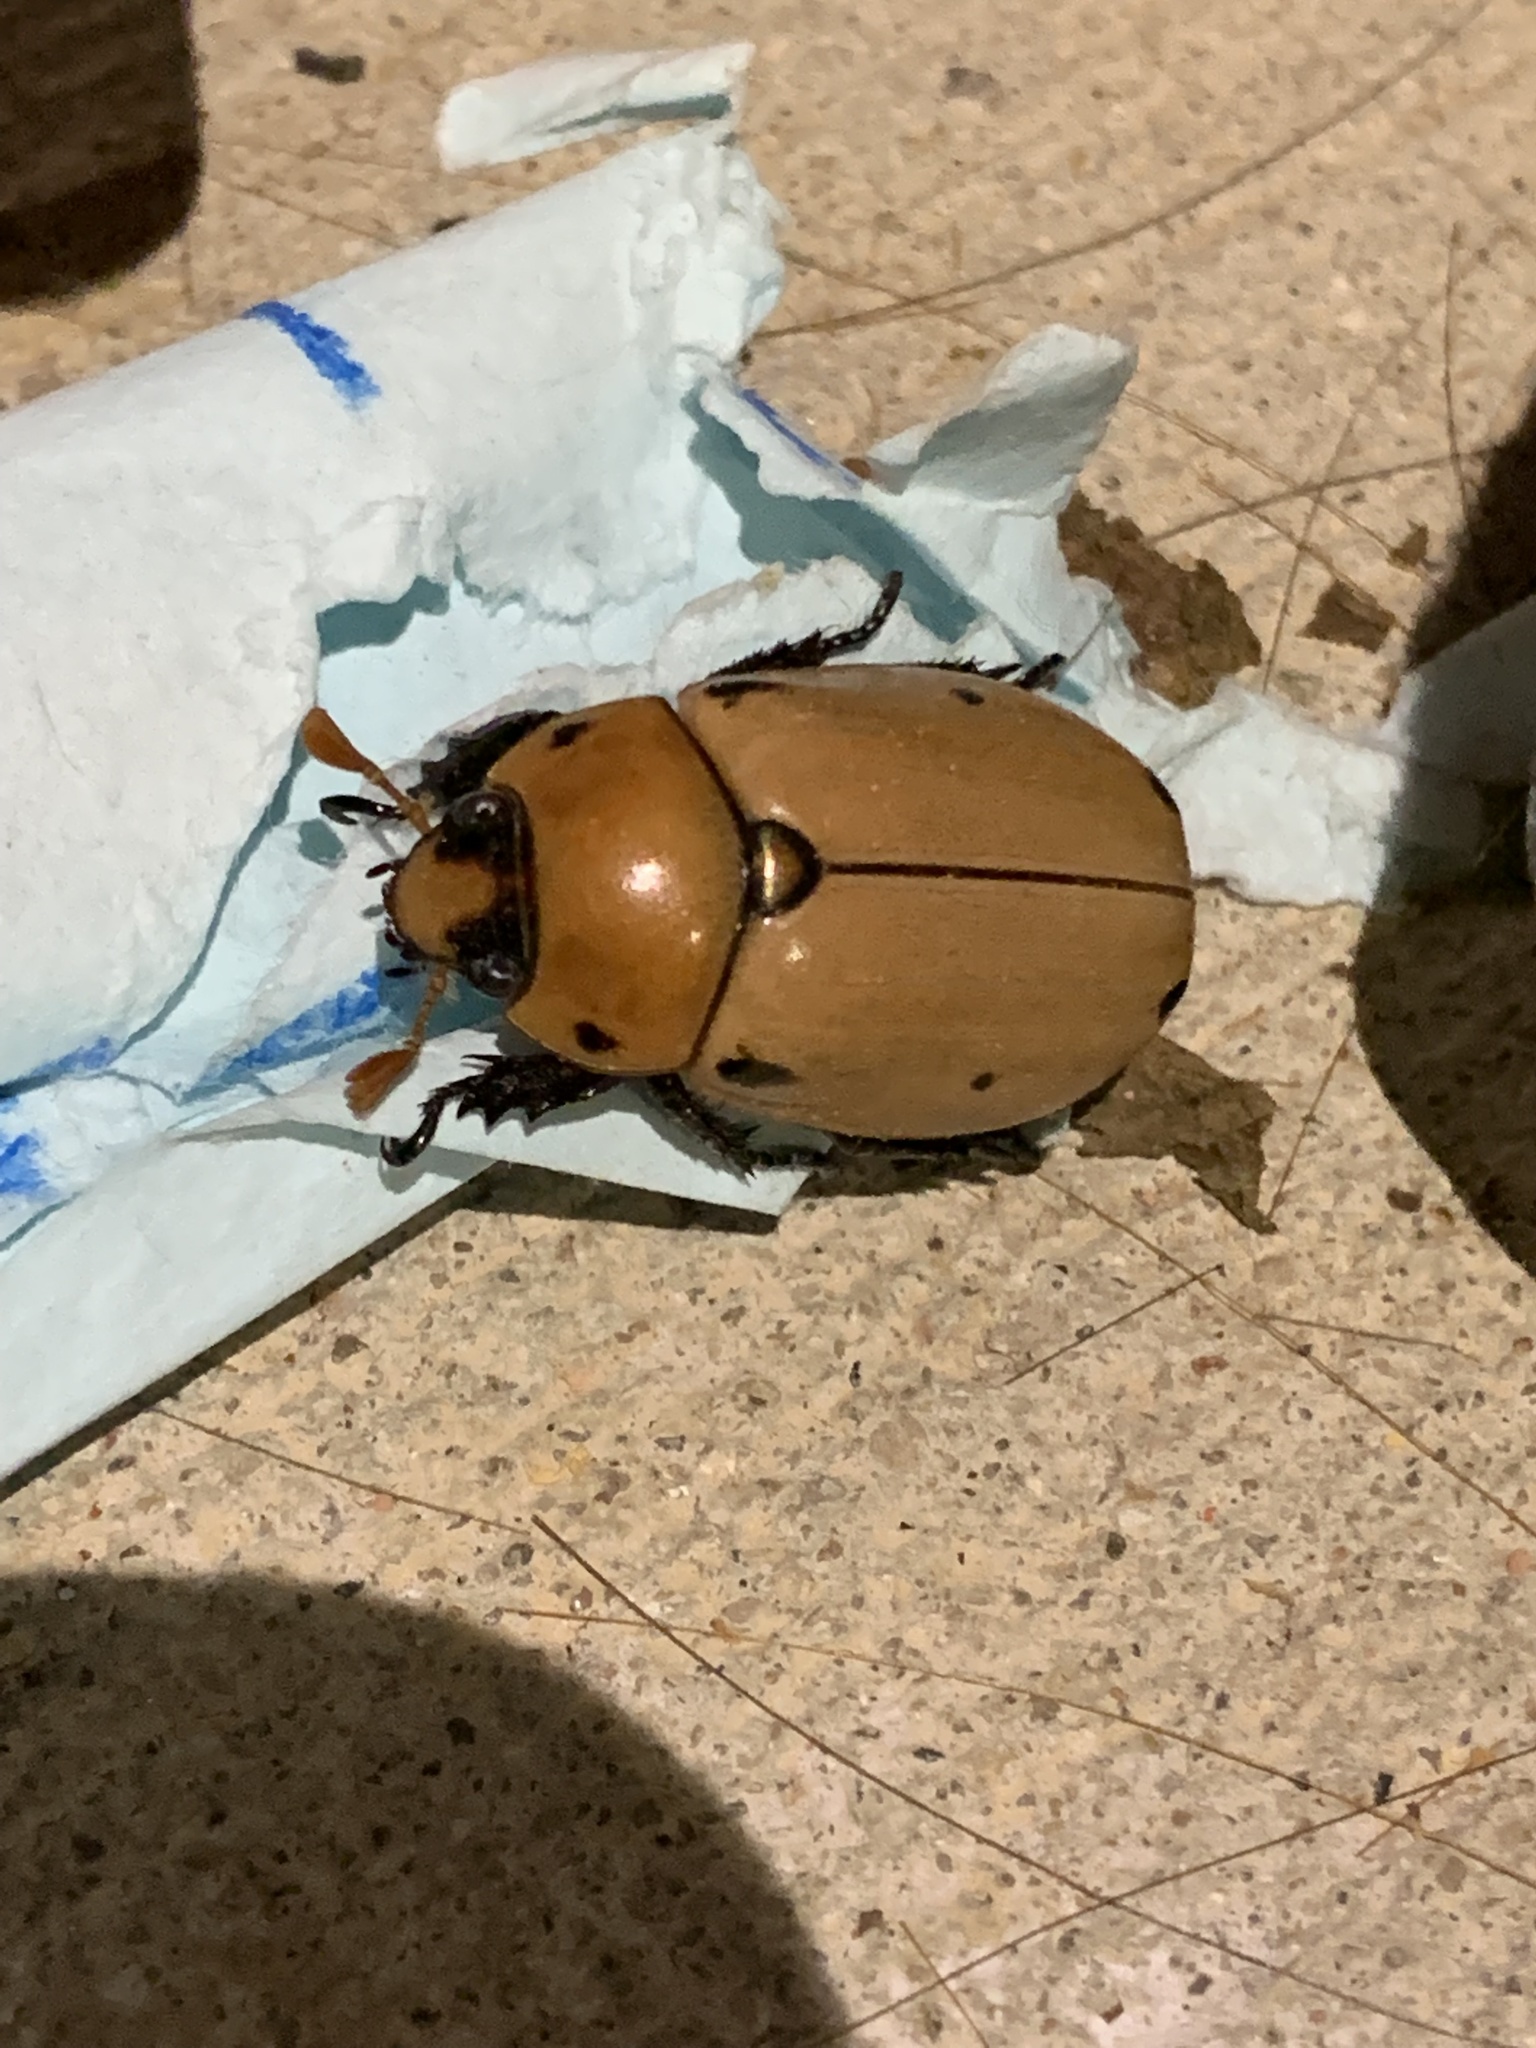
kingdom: Animalia
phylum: Arthropoda
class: Insecta
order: Coleoptera
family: Scarabaeidae
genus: Pelidnota
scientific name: Pelidnota punctata
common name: Grapevine beetle
